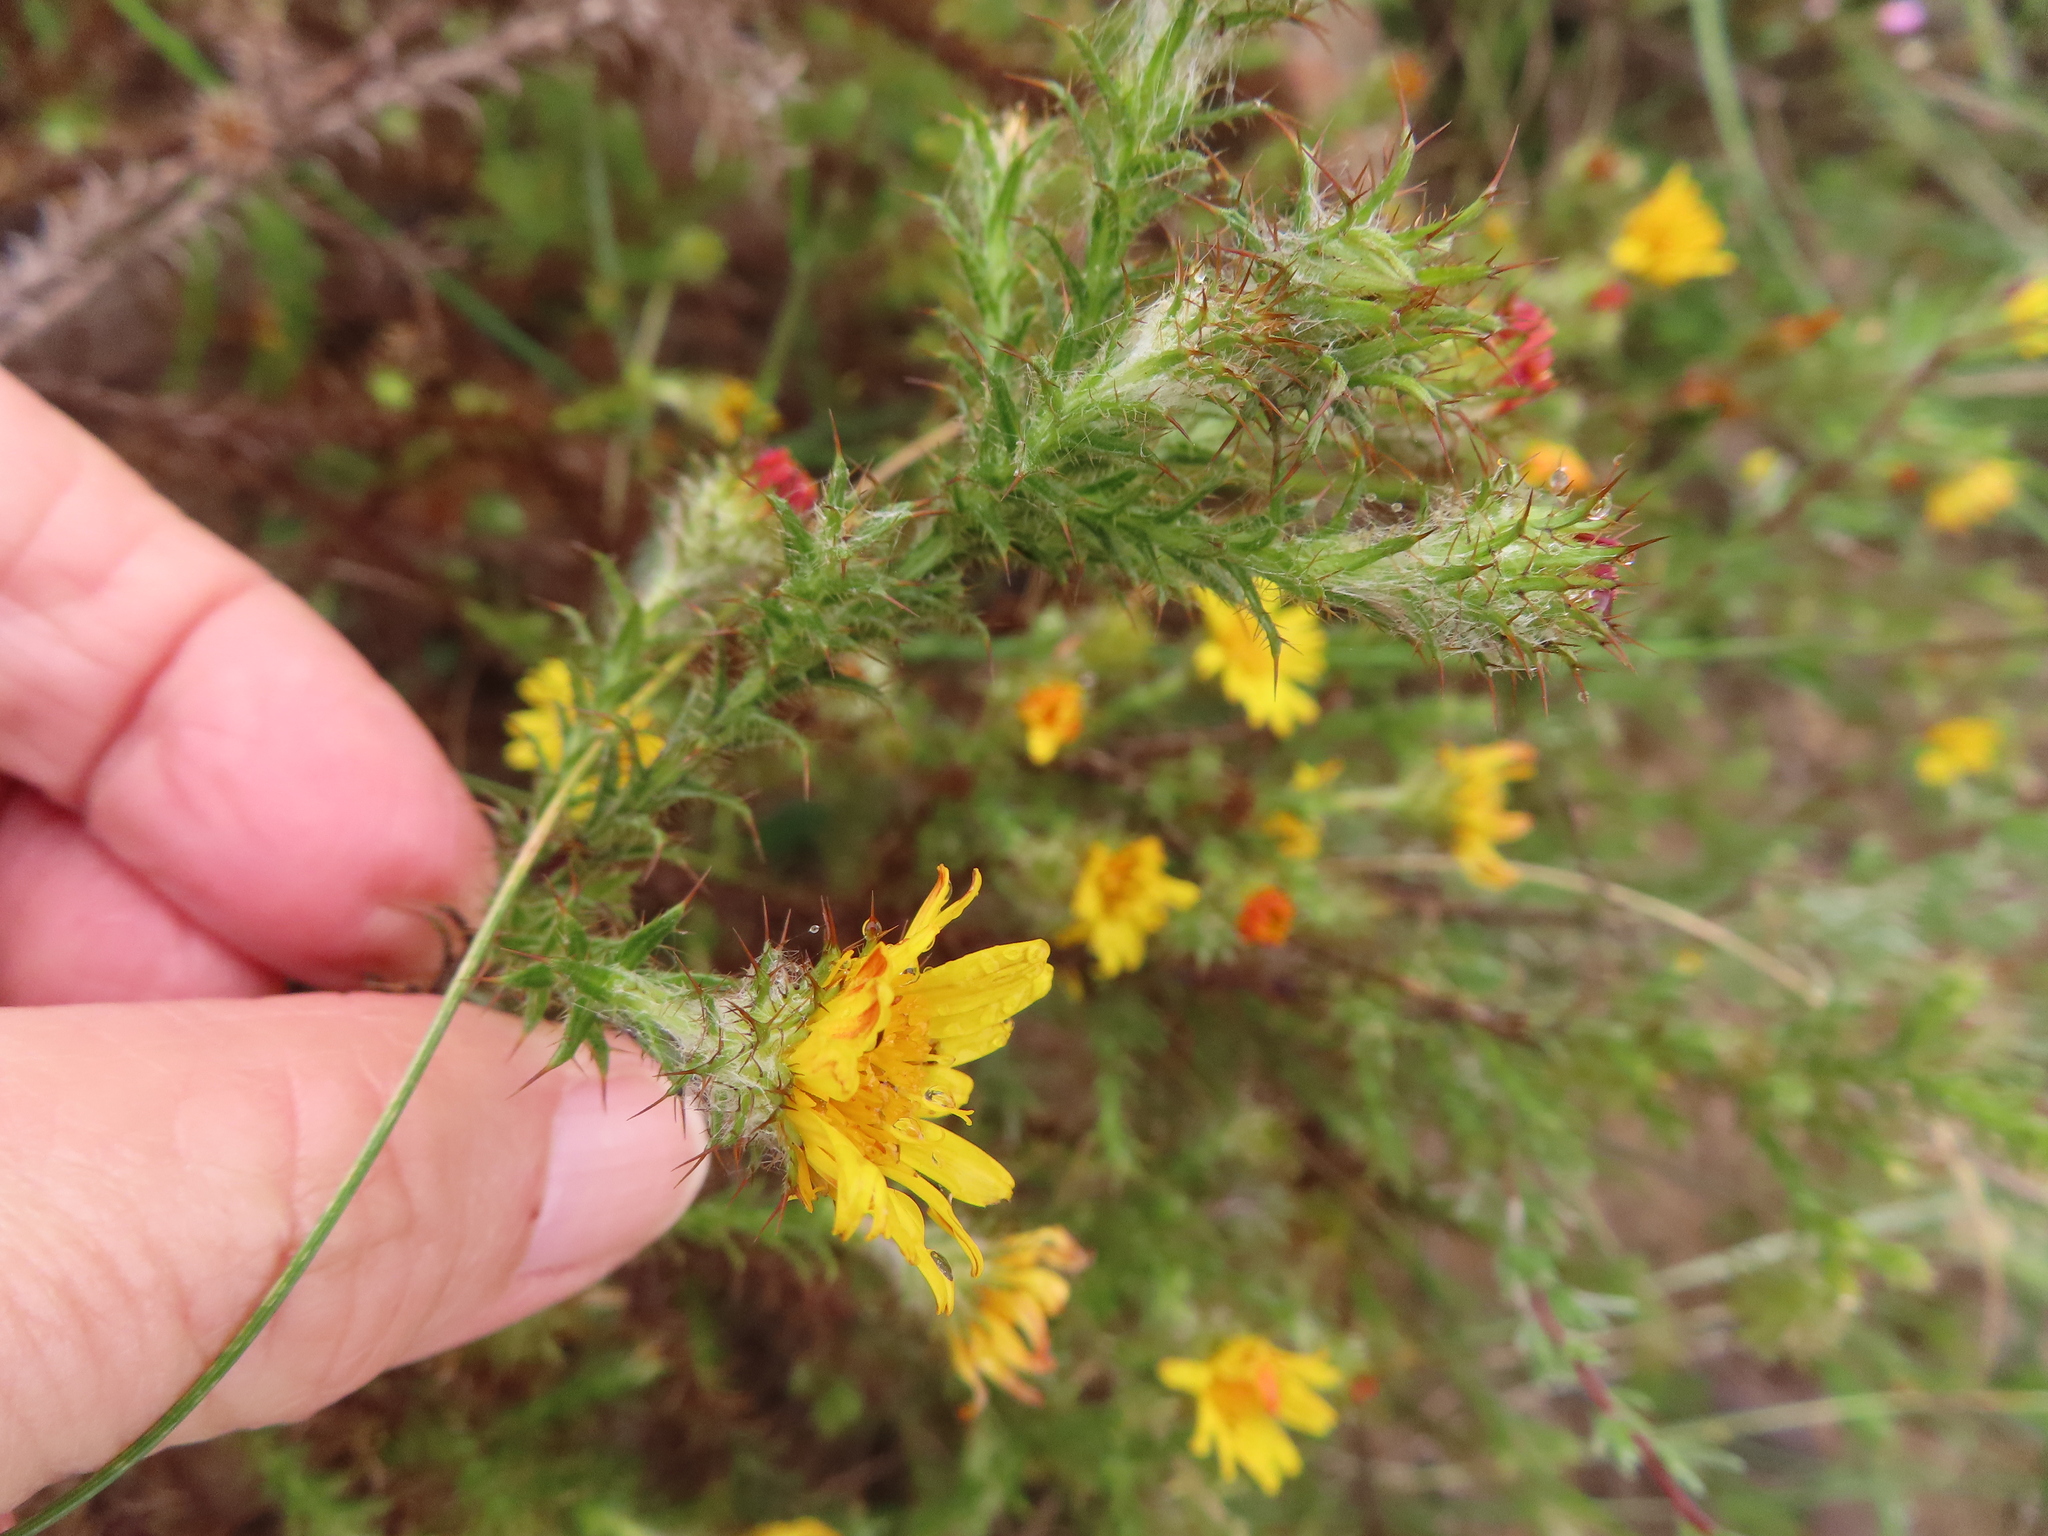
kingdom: Plantae
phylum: Tracheophyta
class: Magnoliopsida
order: Asterales
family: Asteraceae
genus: Cullumia
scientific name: Cullumia reticulata
